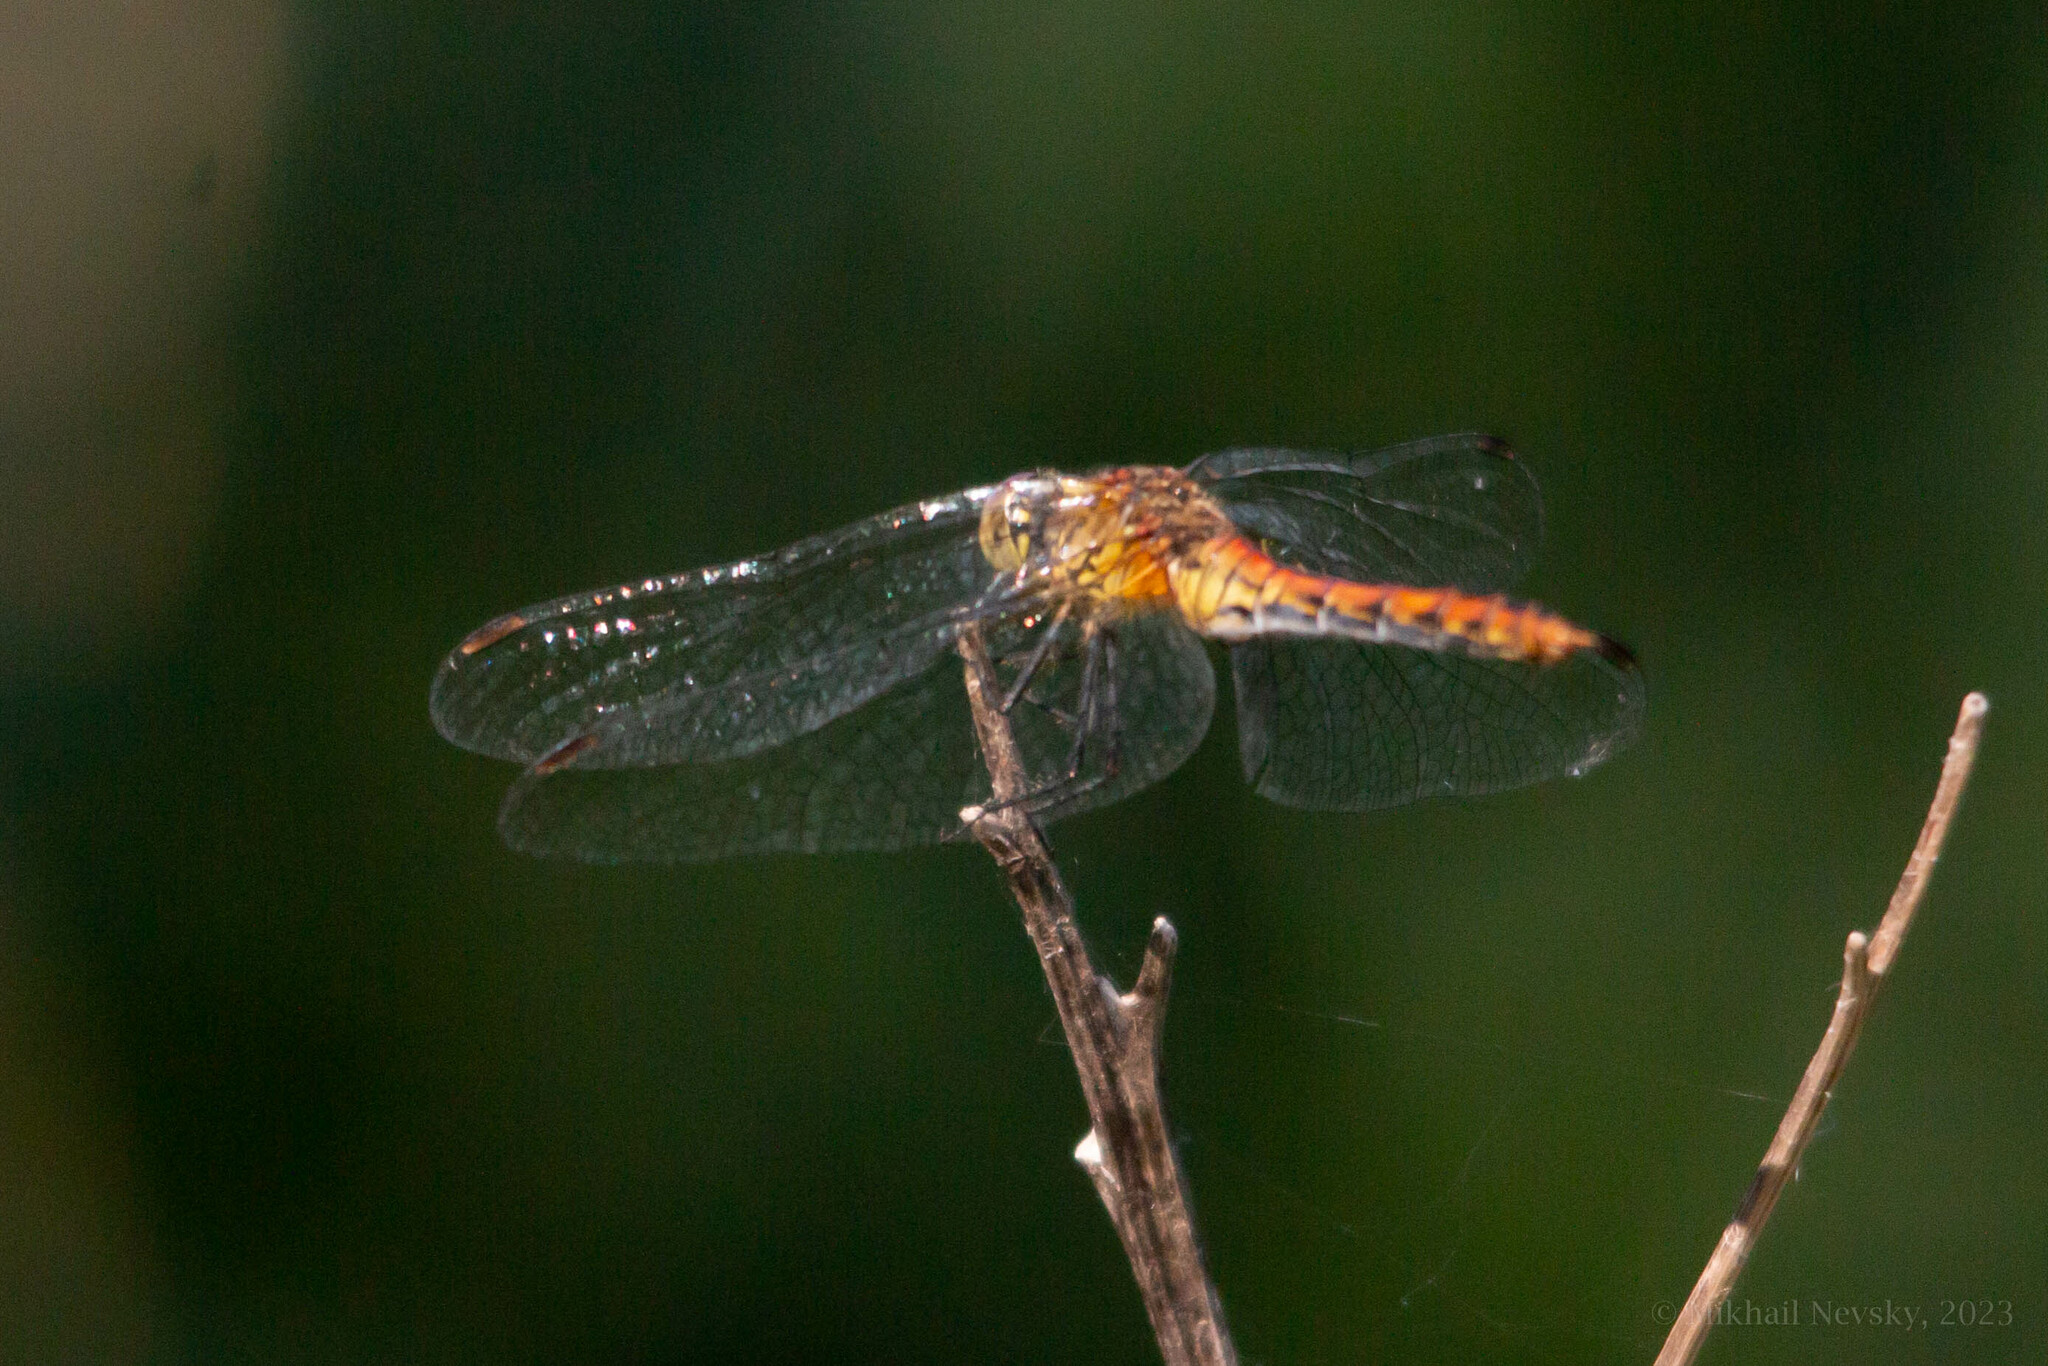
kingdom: Animalia
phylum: Arthropoda
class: Insecta
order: Odonata
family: Libellulidae
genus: Sympetrum
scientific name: Sympetrum sanguineum
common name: Ruddy darter
